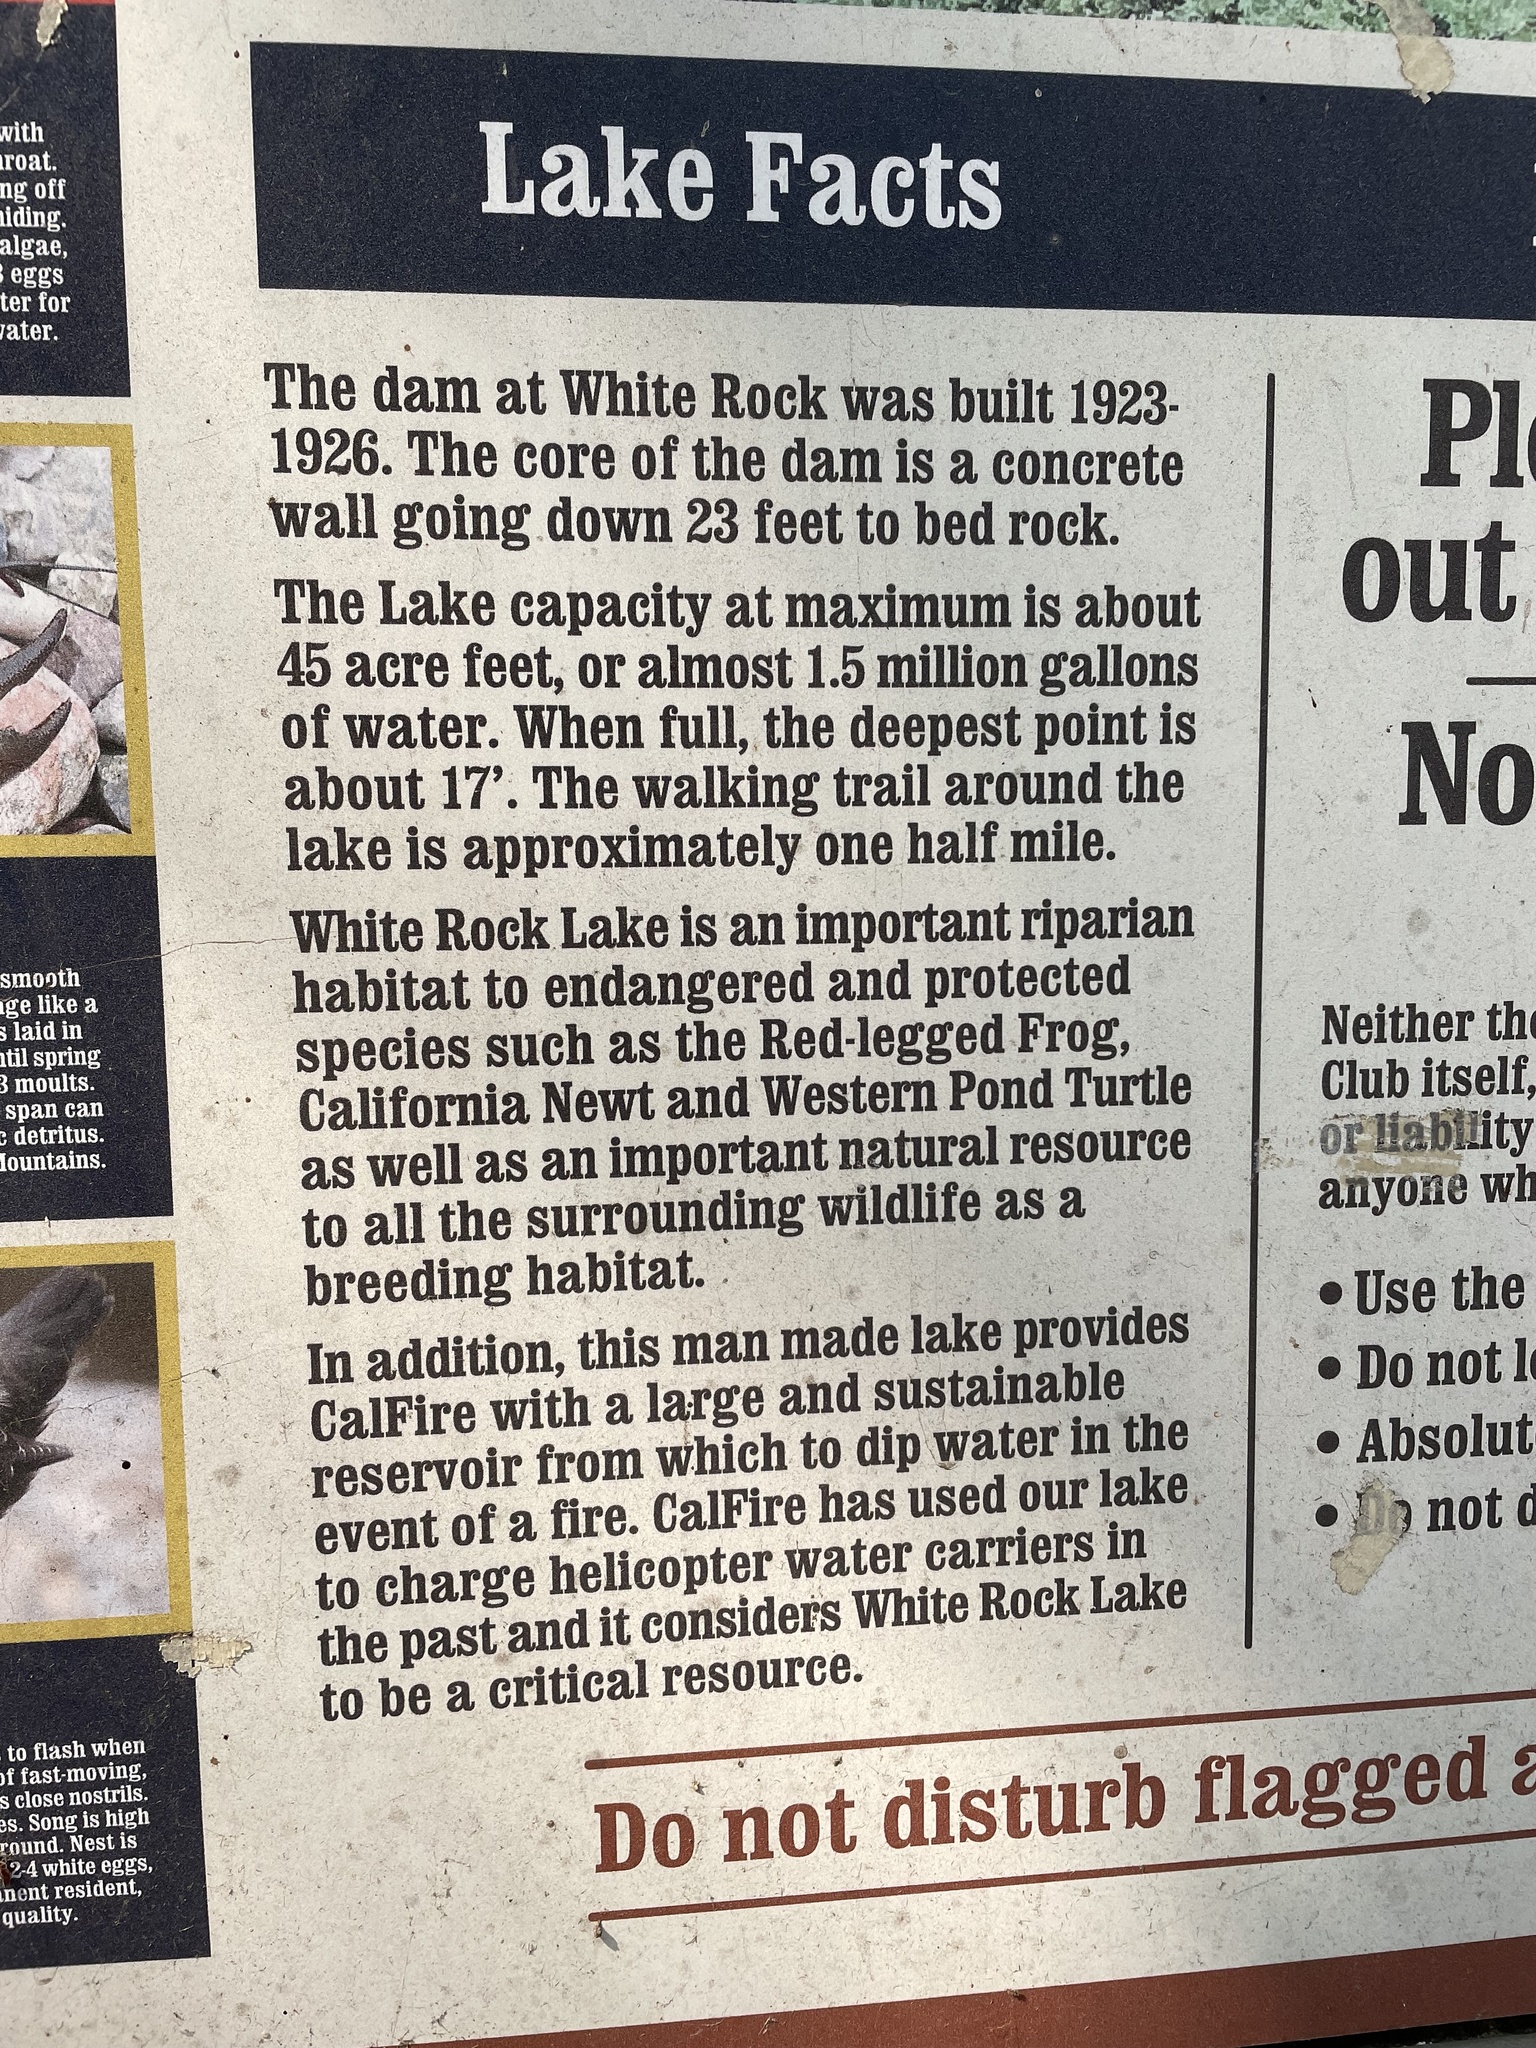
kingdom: Animalia
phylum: Chordata
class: Aves
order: Passeriformes
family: Corvidae
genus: Cyanocitta
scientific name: Cyanocitta stelleri
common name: Steller's jay
